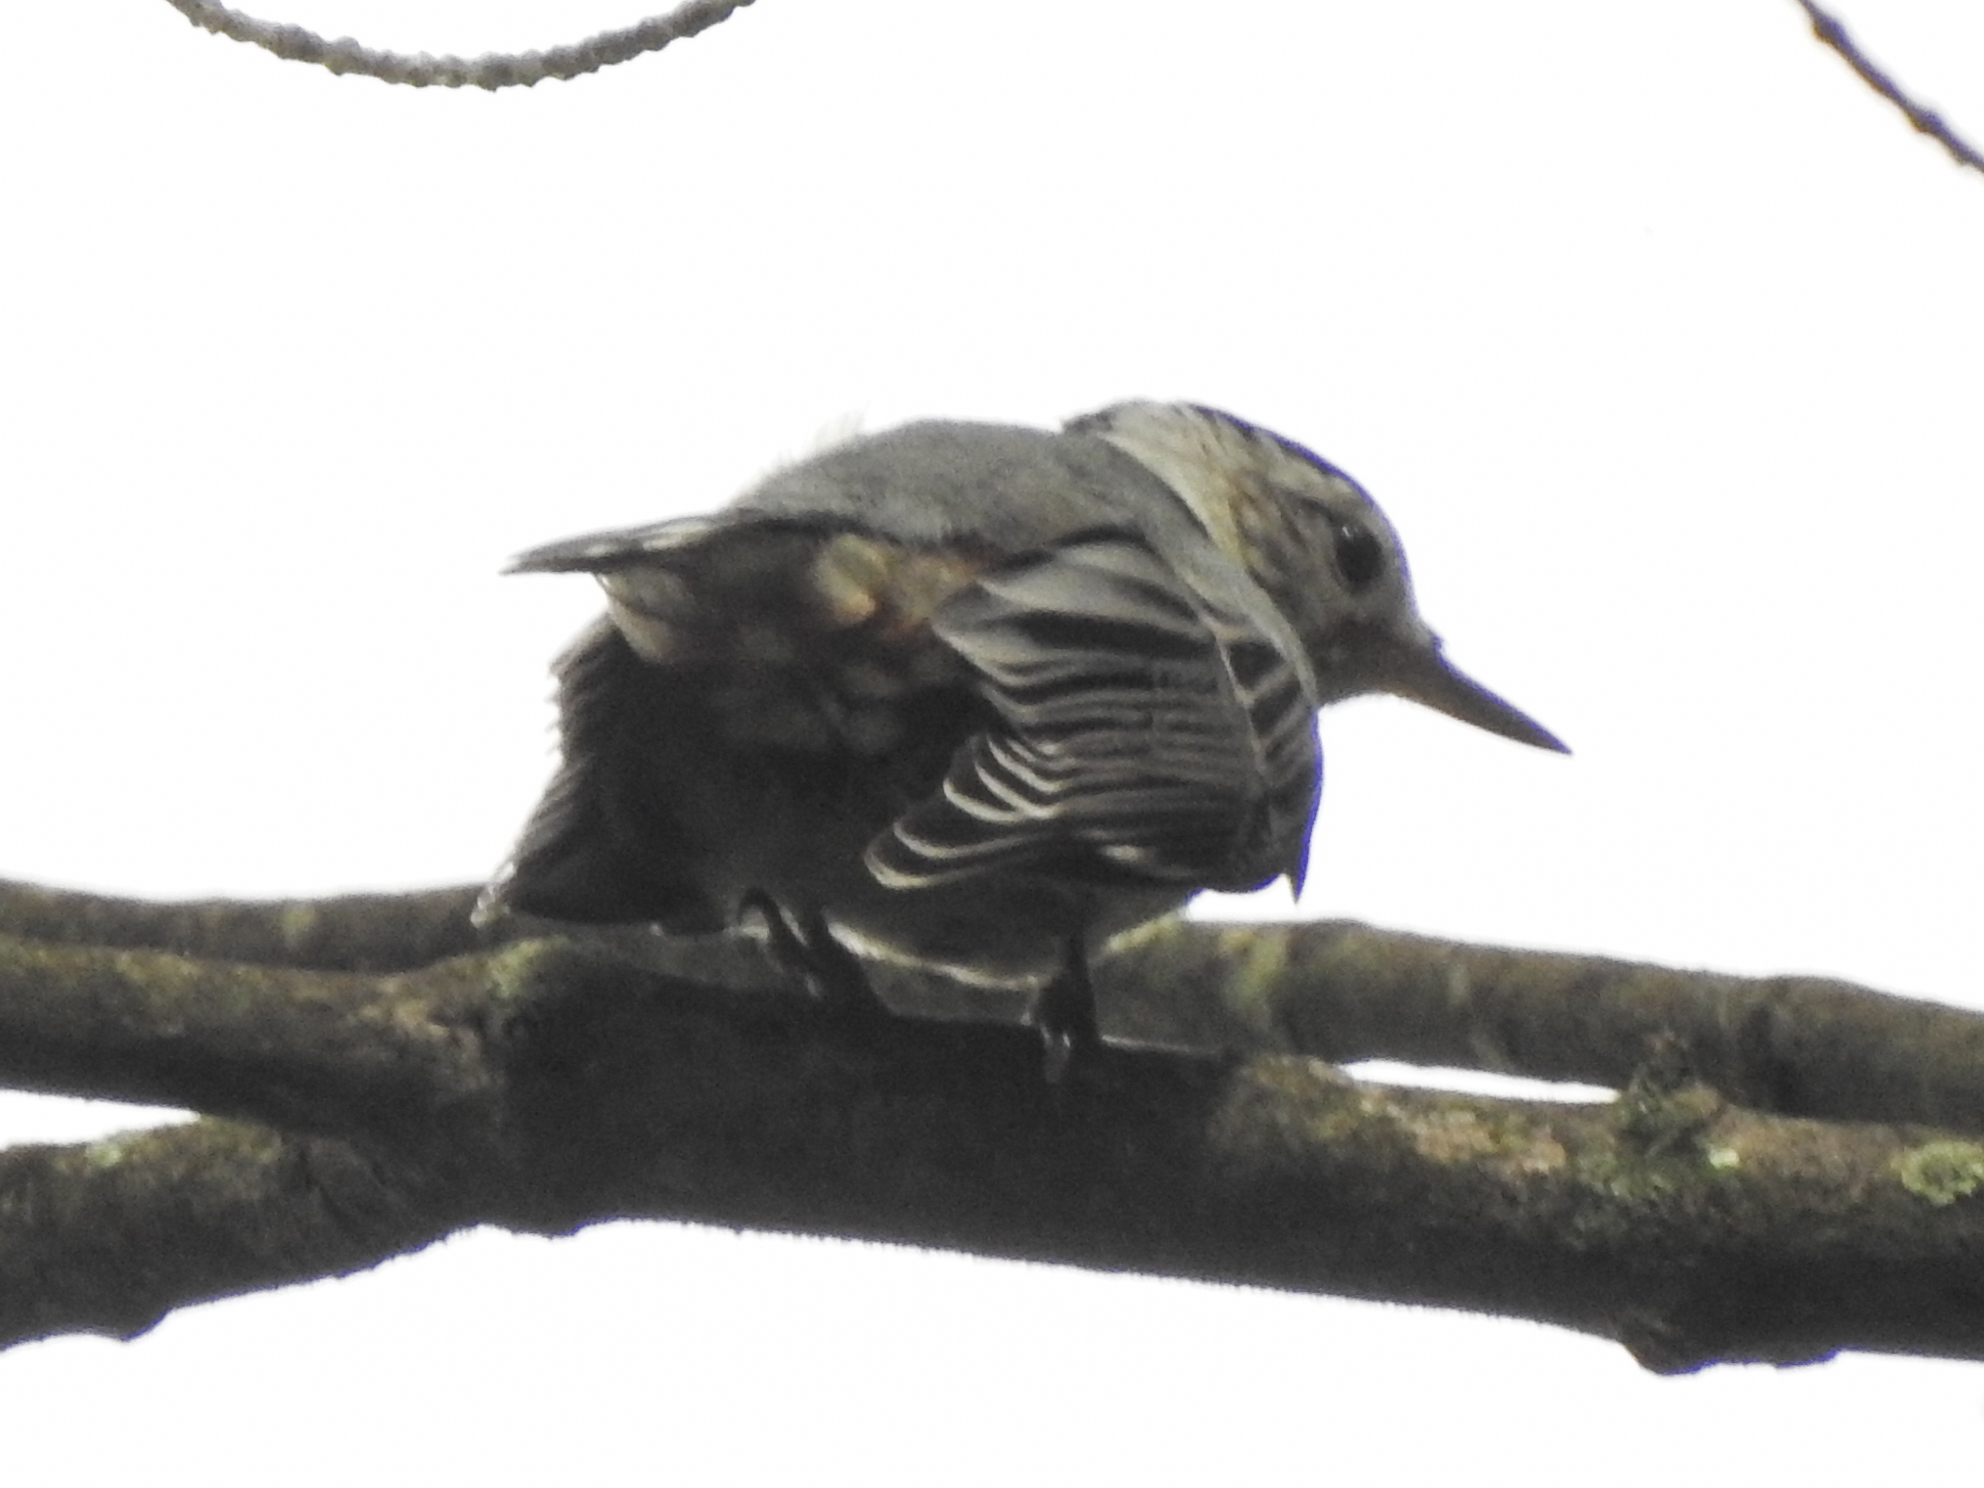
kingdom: Animalia
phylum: Chordata
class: Aves
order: Passeriformes
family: Sittidae
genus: Sitta
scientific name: Sitta carolinensis
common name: White-breasted nuthatch
